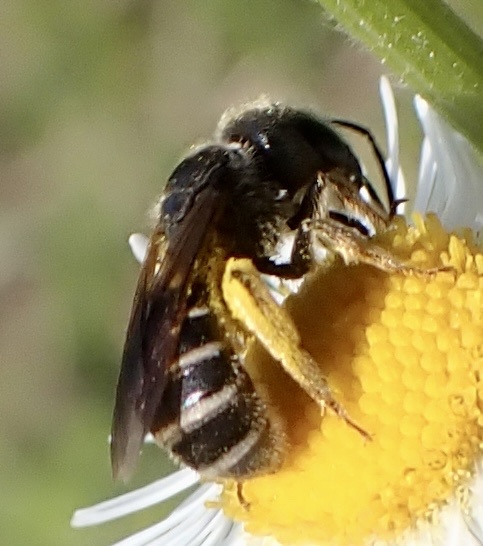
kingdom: Animalia
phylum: Arthropoda
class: Insecta
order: Hymenoptera
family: Halictidae
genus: Halictus
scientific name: Halictus poeyi
